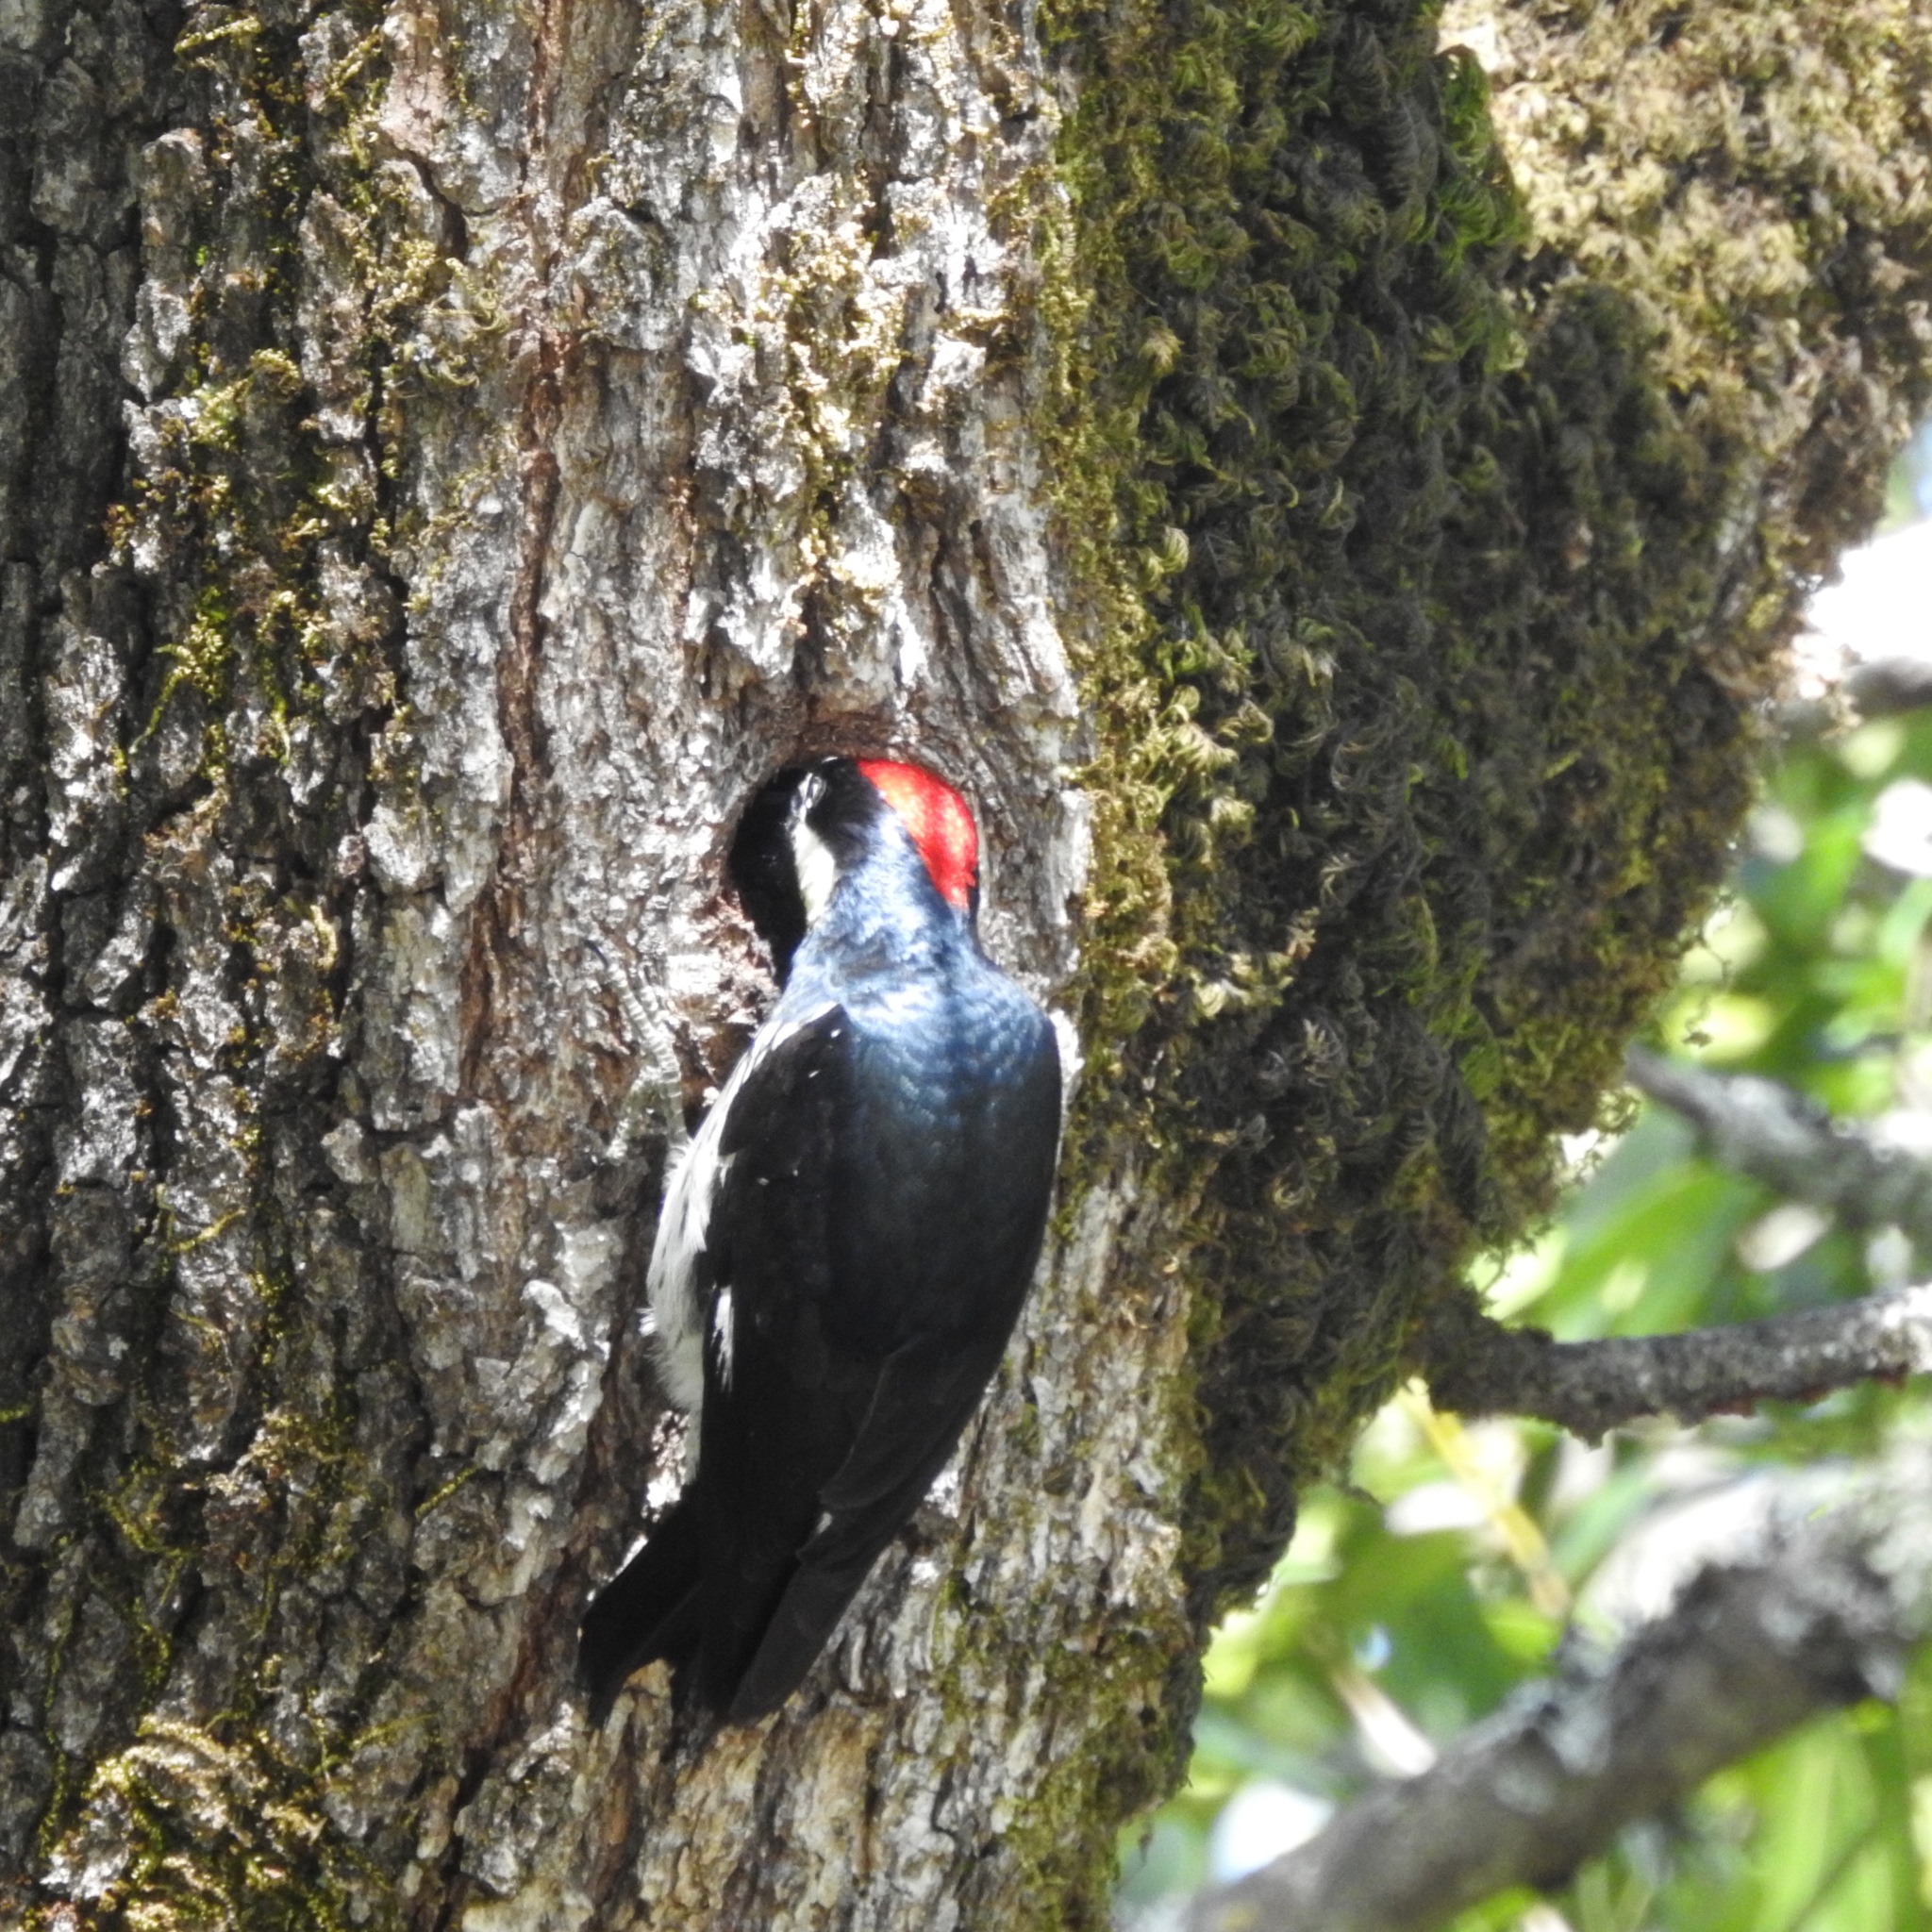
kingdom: Animalia
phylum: Chordata
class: Aves
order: Piciformes
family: Picidae
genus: Melanerpes
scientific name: Melanerpes formicivorus
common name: Acorn woodpecker
